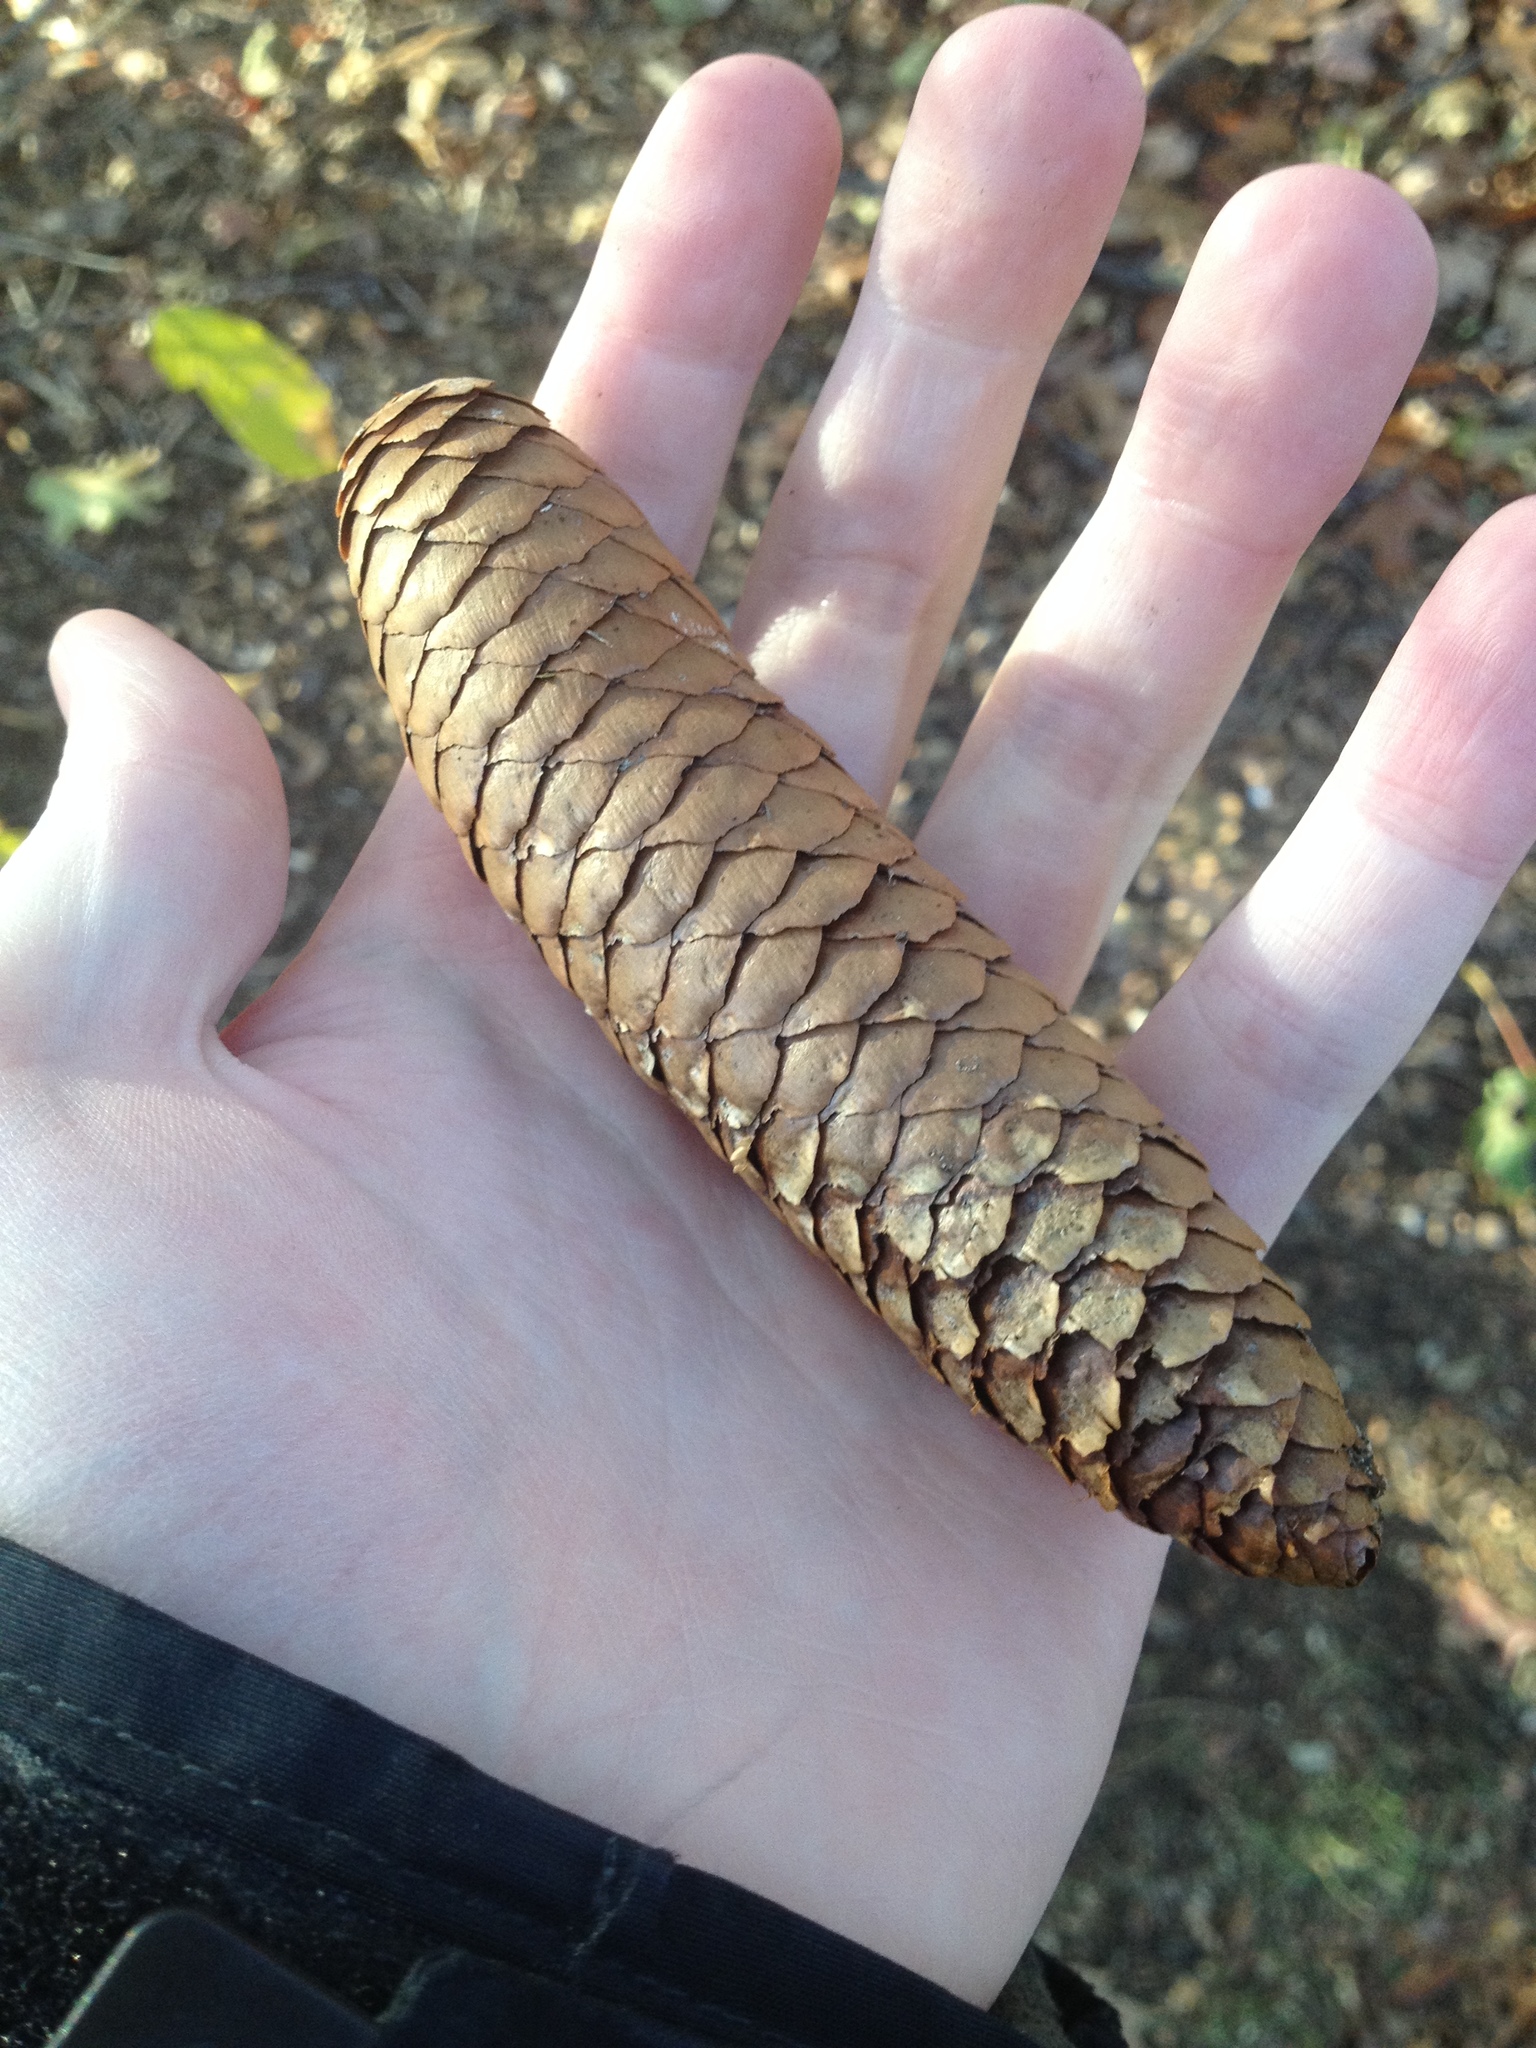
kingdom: Plantae
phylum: Tracheophyta
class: Pinopsida
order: Pinales
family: Pinaceae
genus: Picea
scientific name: Picea abies
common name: Norway spruce
